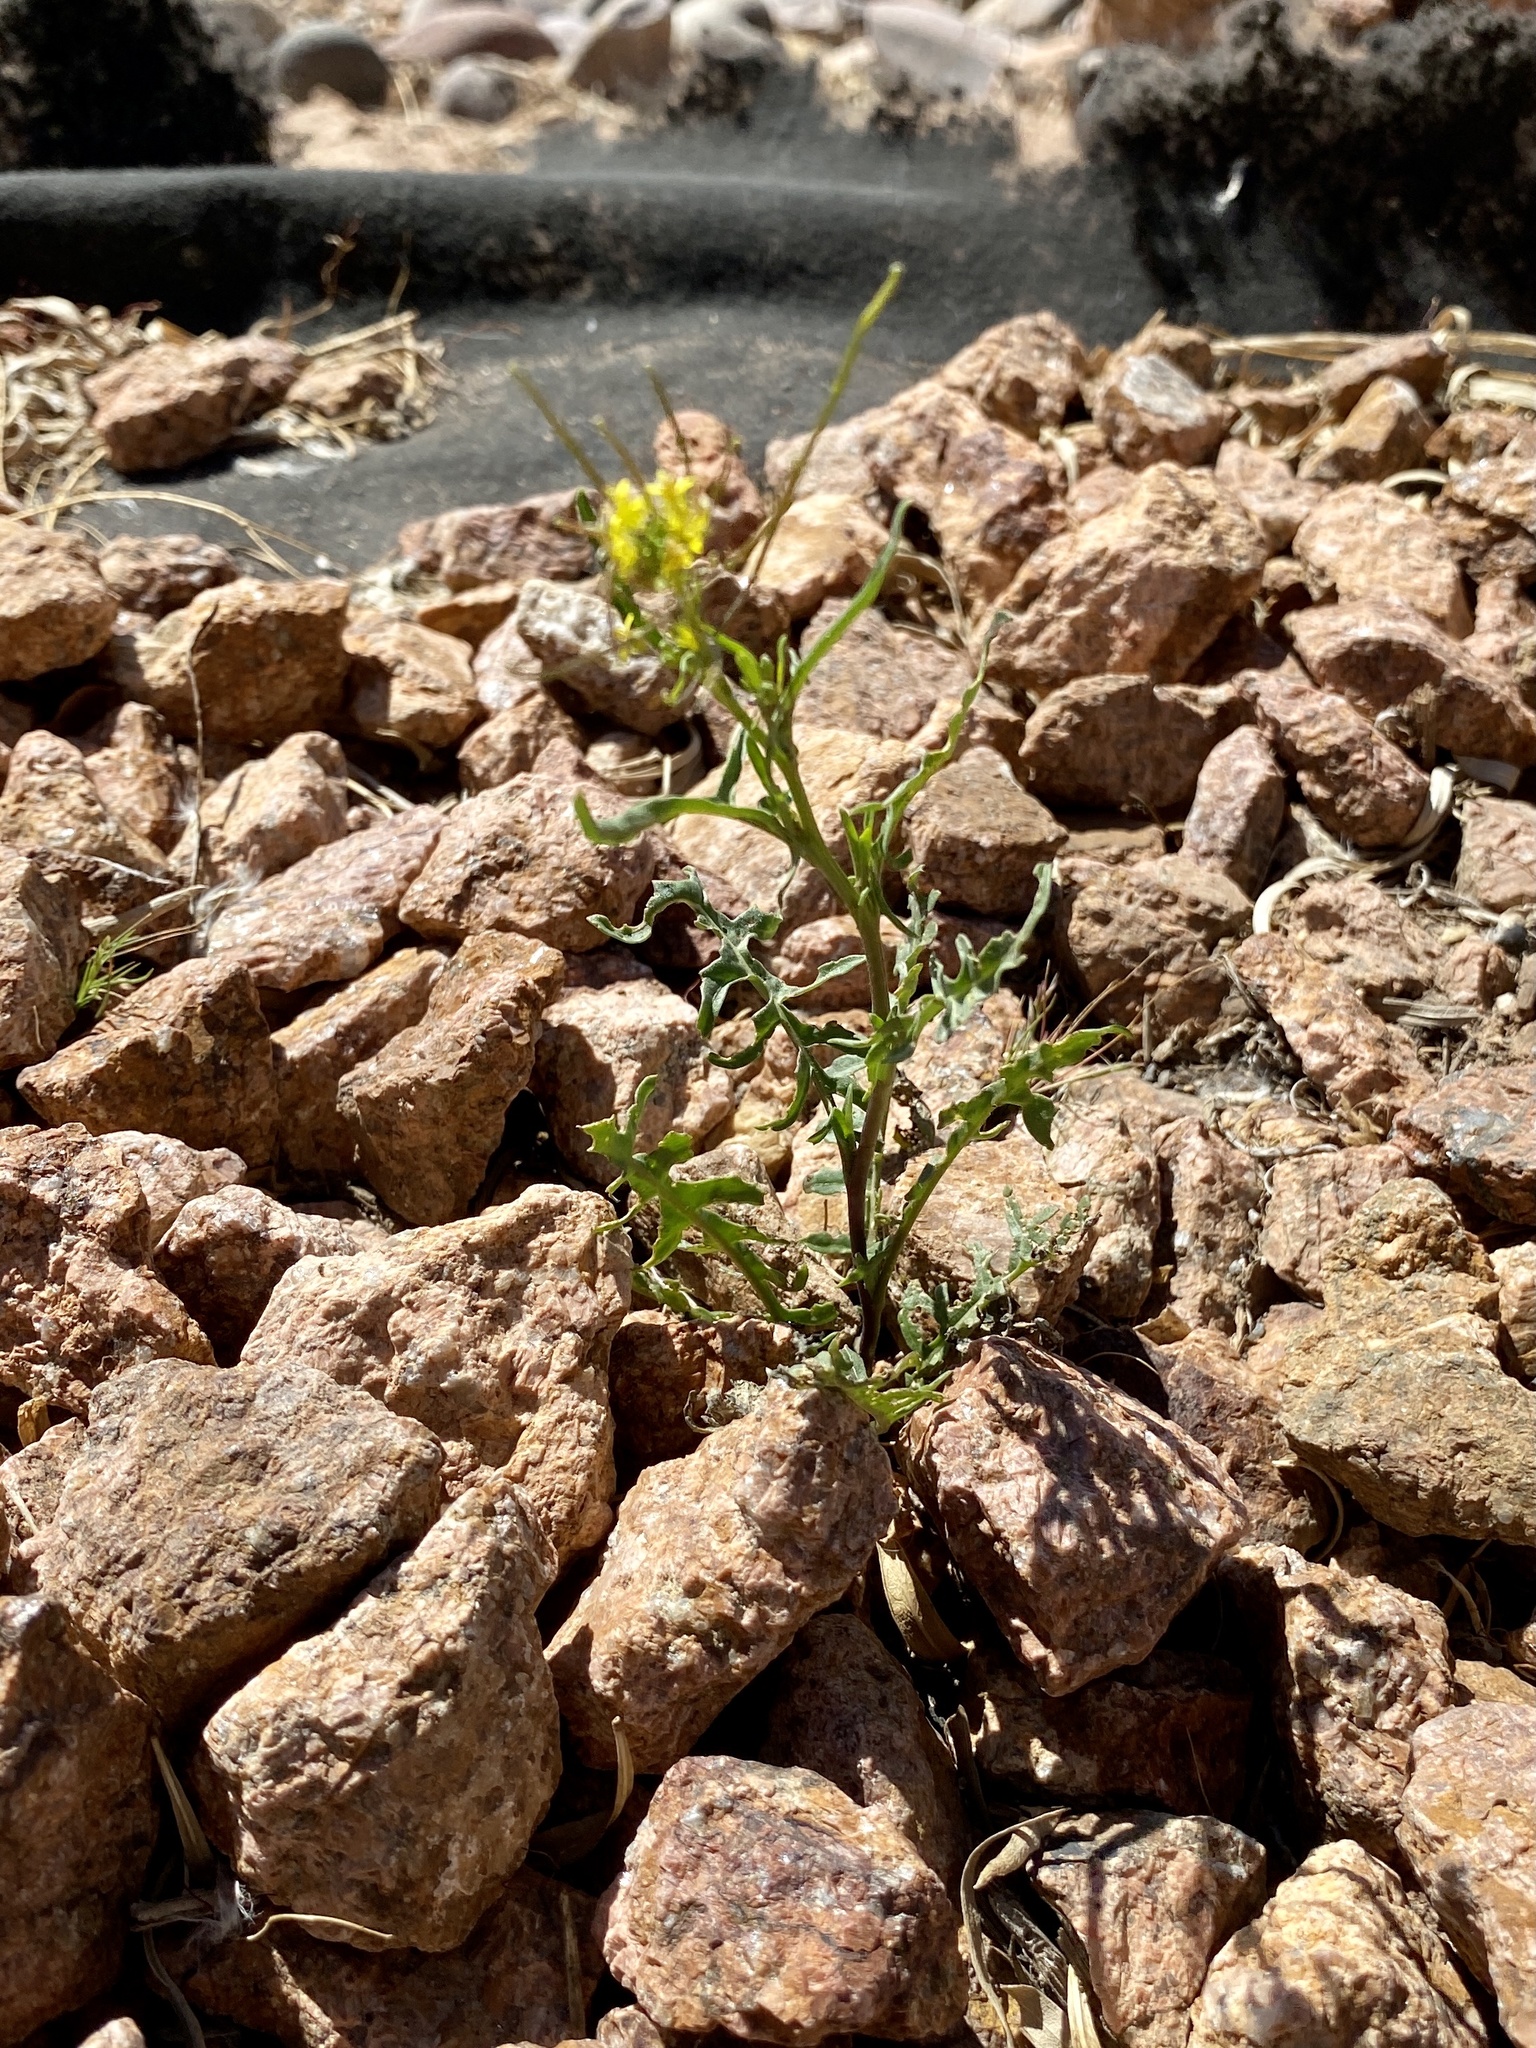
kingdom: Plantae
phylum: Tracheophyta
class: Magnoliopsida
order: Brassicales
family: Brassicaceae
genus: Sisymbrium
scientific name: Sisymbrium irio
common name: London rocket
